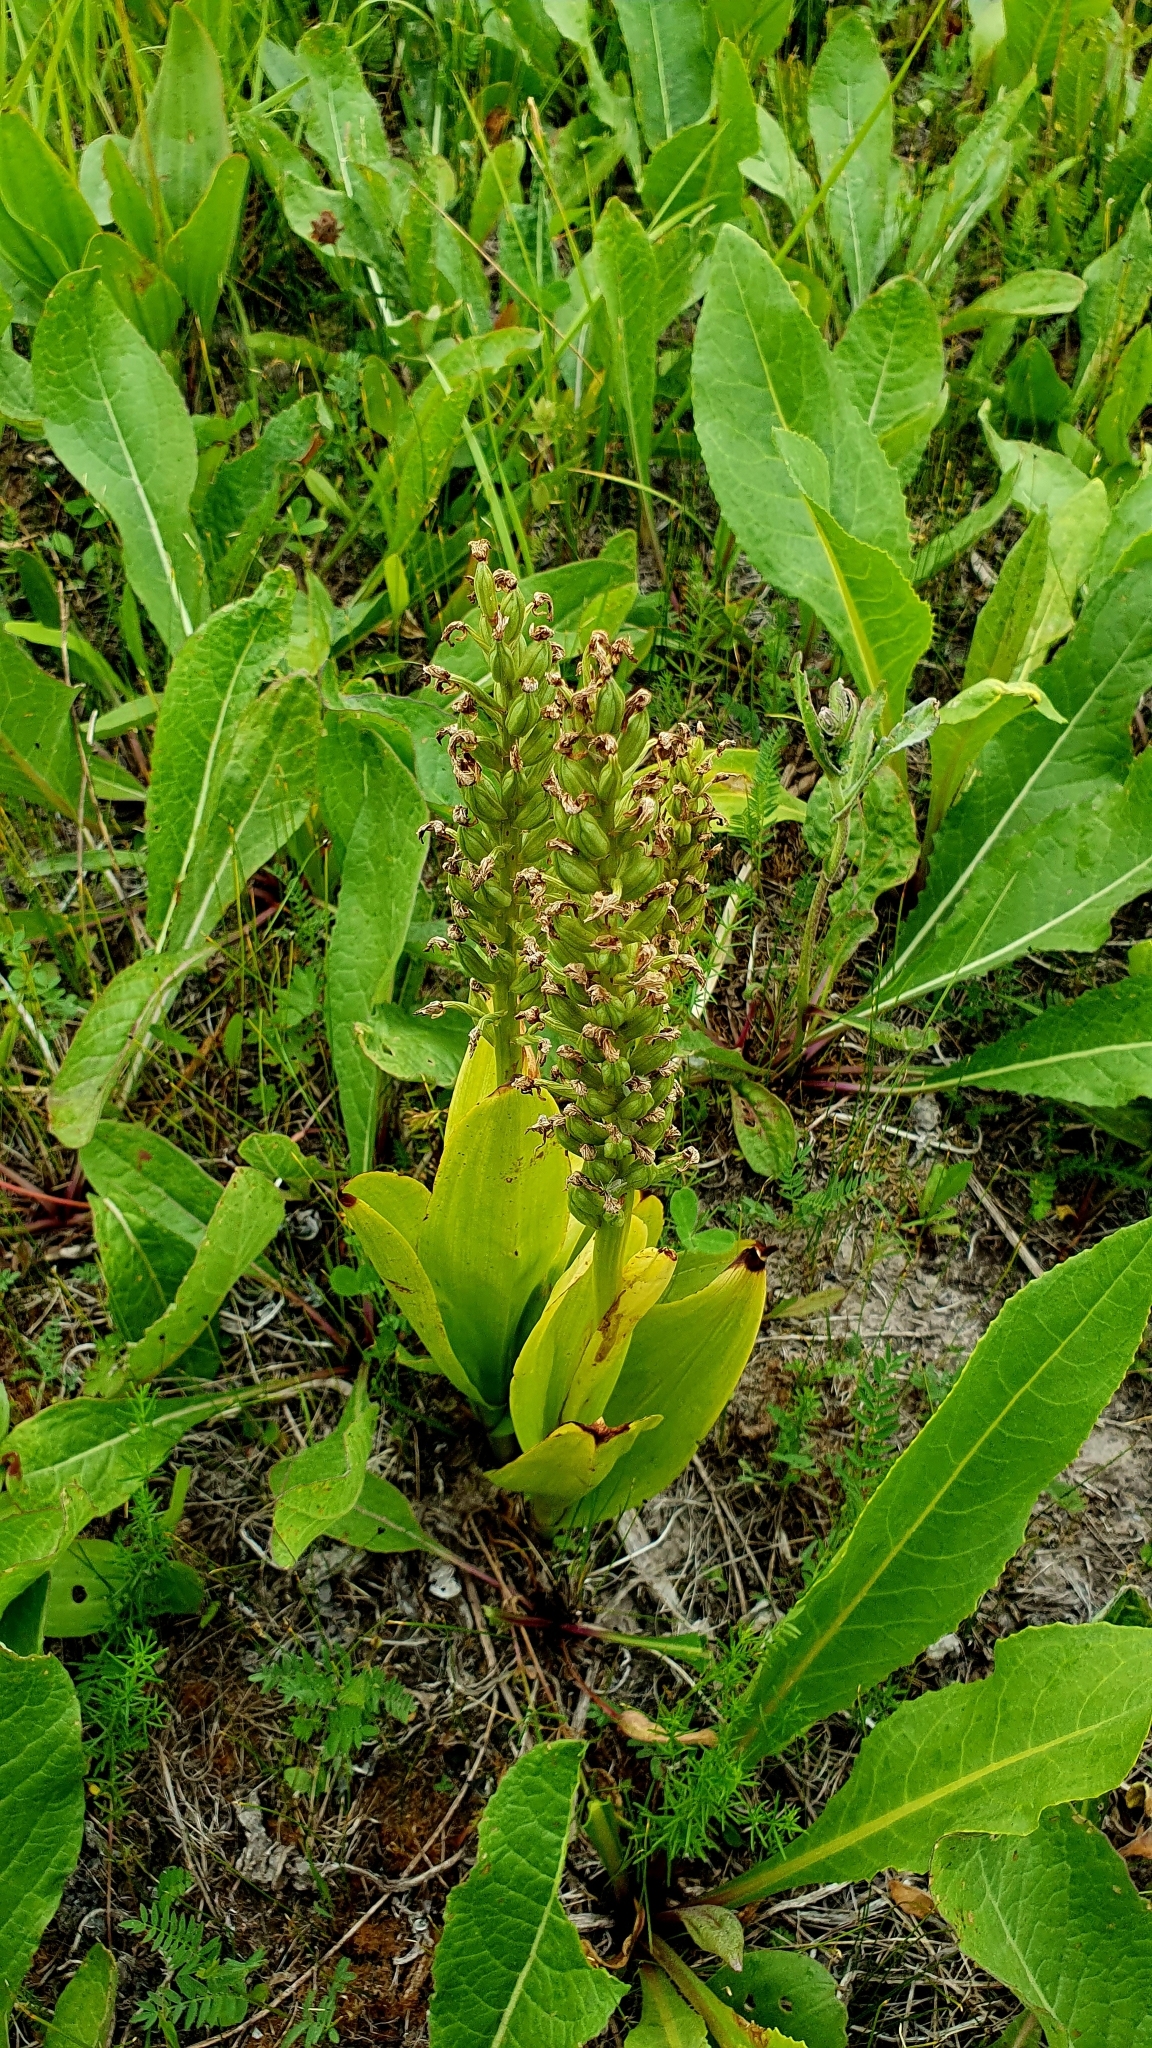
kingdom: Plantae
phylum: Tracheophyta
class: Liliopsida
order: Asparagales
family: Orchidaceae
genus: Orchis
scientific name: Orchis militaris
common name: Military orchid
